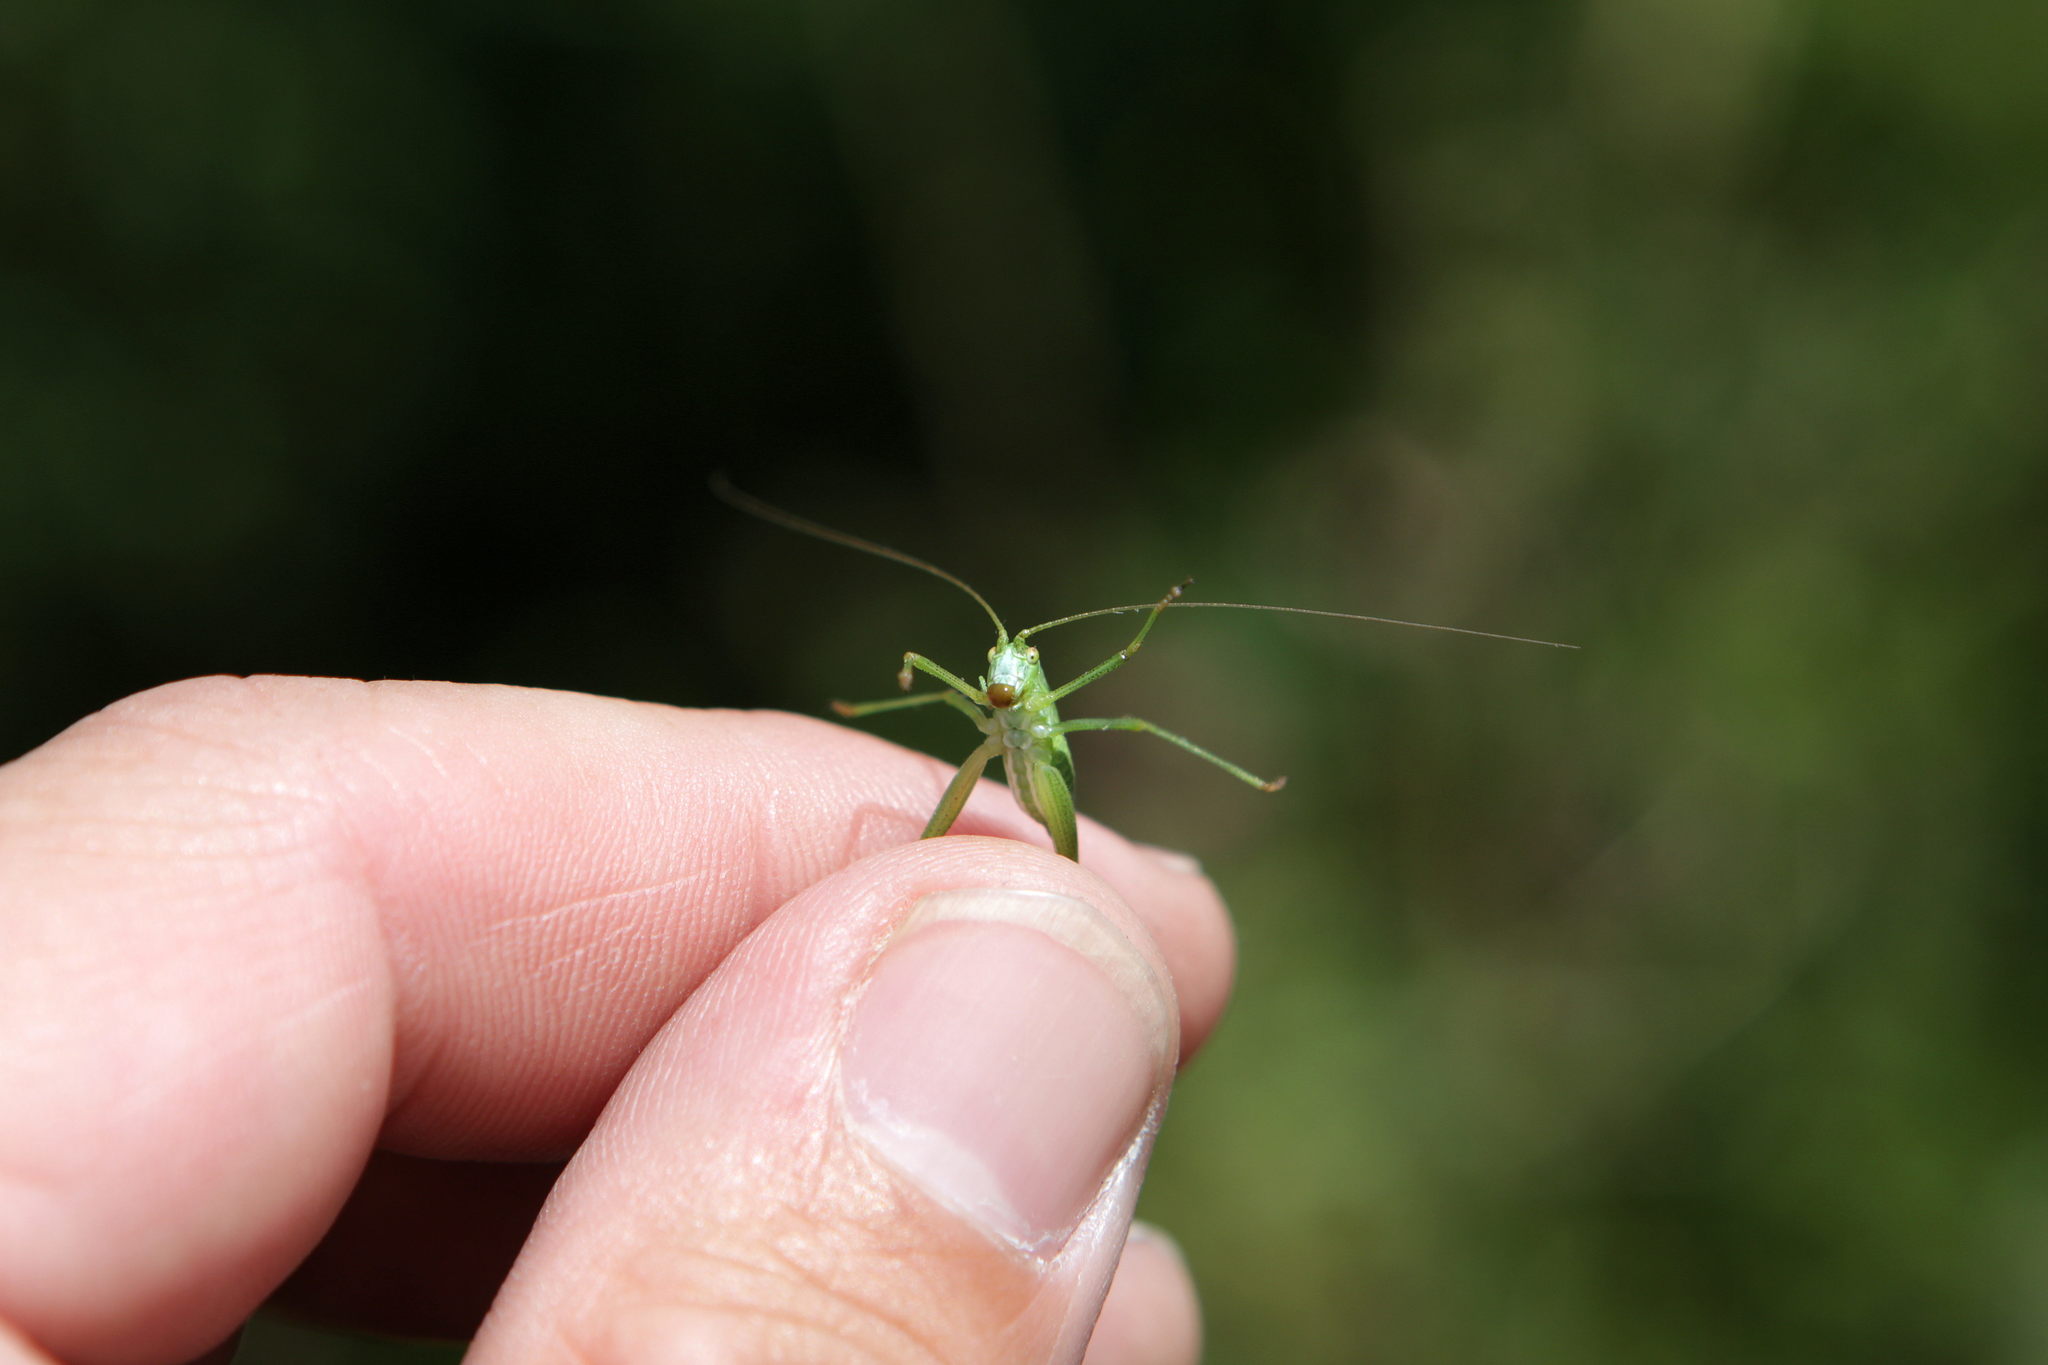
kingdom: Animalia
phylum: Arthropoda
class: Insecta
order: Orthoptera
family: Tettigoniidae
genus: Phaneroptera
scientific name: Phaneroptera falcata
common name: Sickle-bearing bush-cricket
